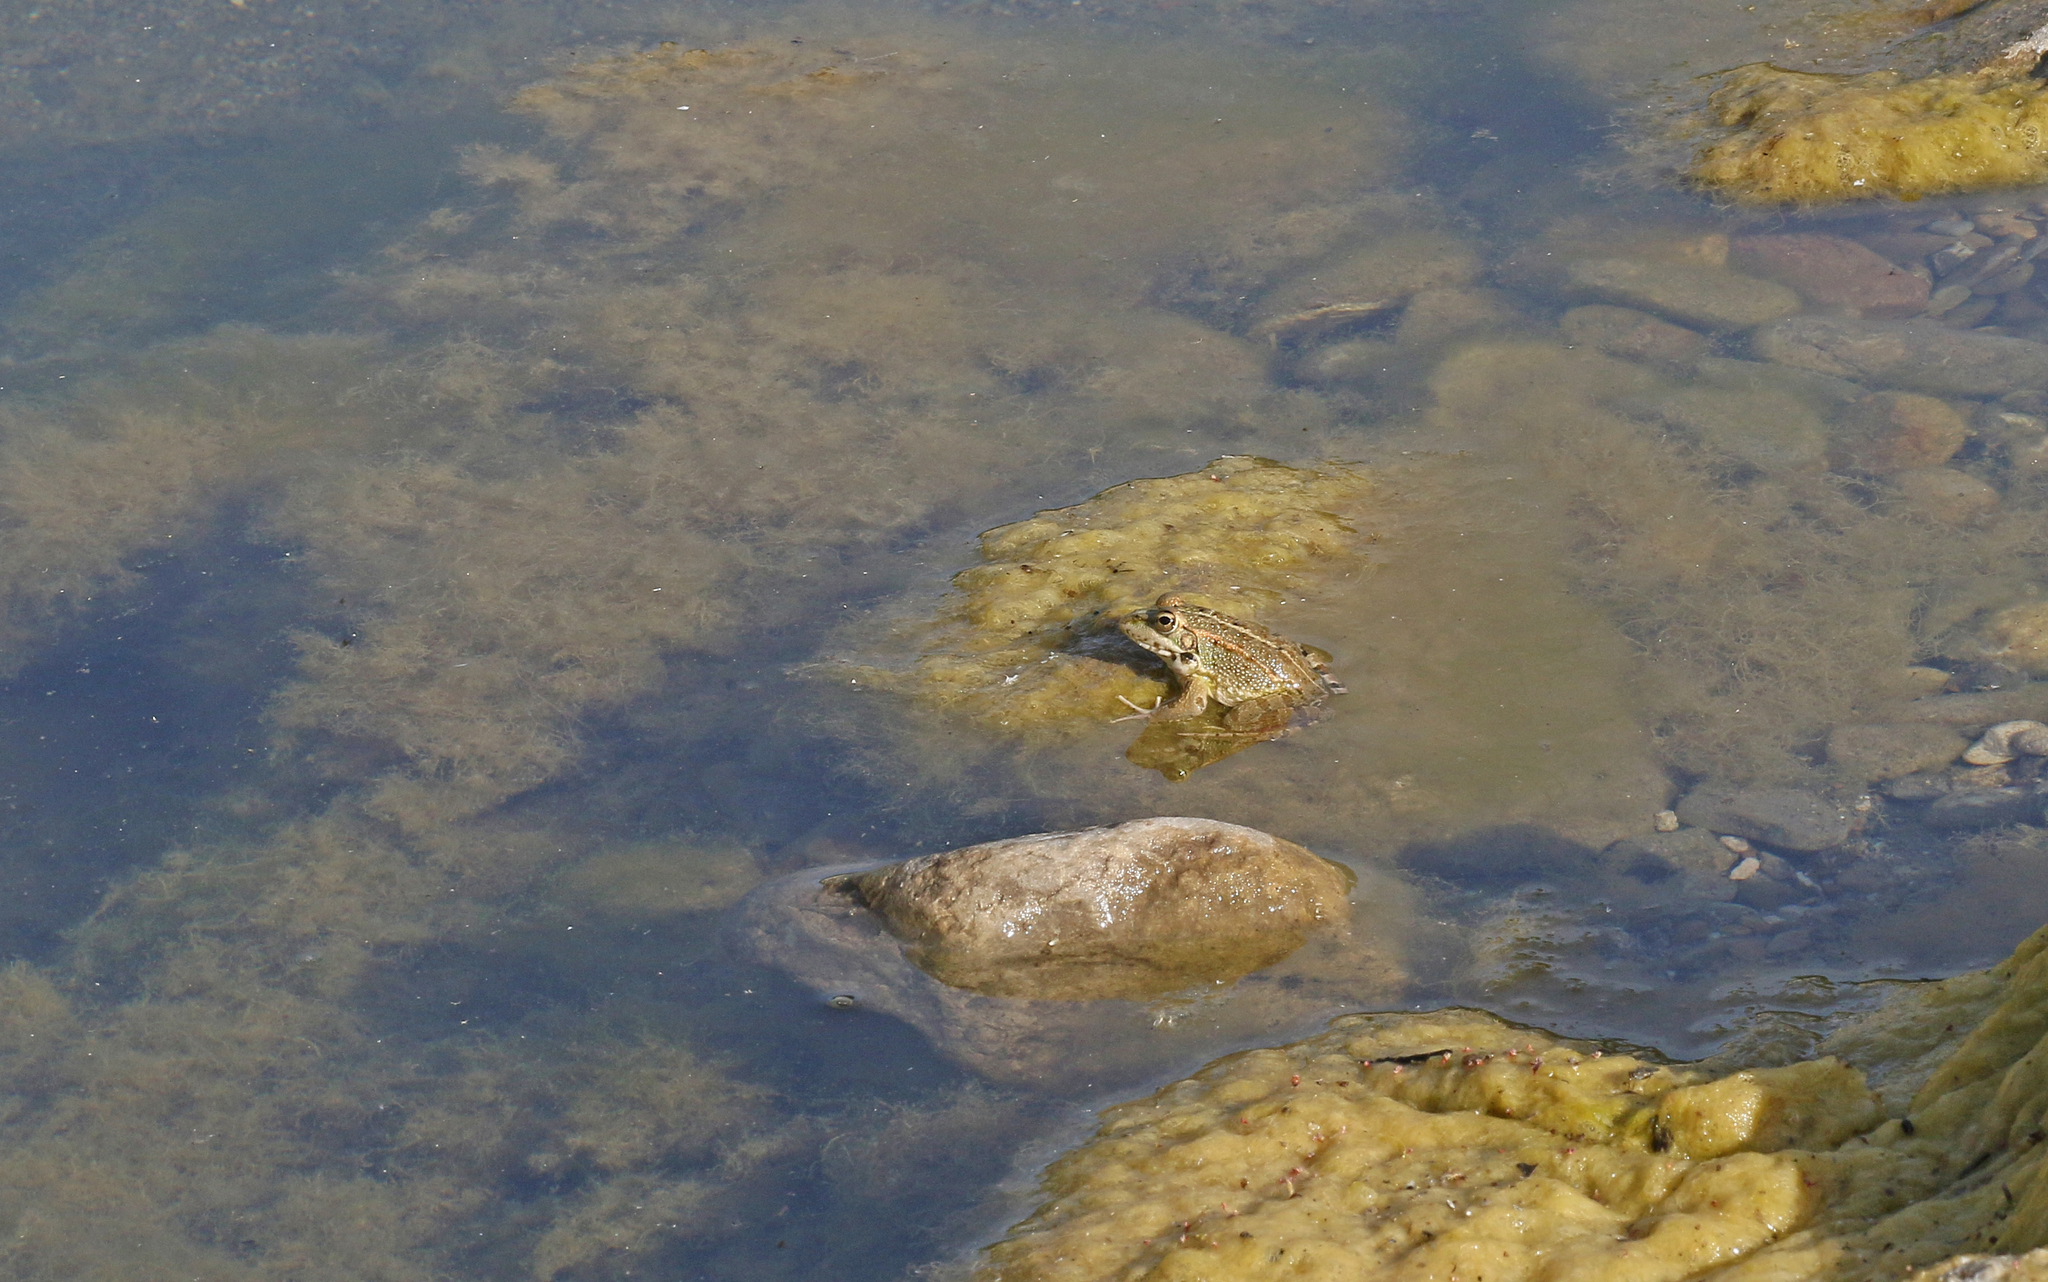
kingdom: Animalia
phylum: Chordata
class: Amphibia
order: Anura
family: Ranidae
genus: Pelophylax
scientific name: Pelophylax perezi
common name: Perez's frog
